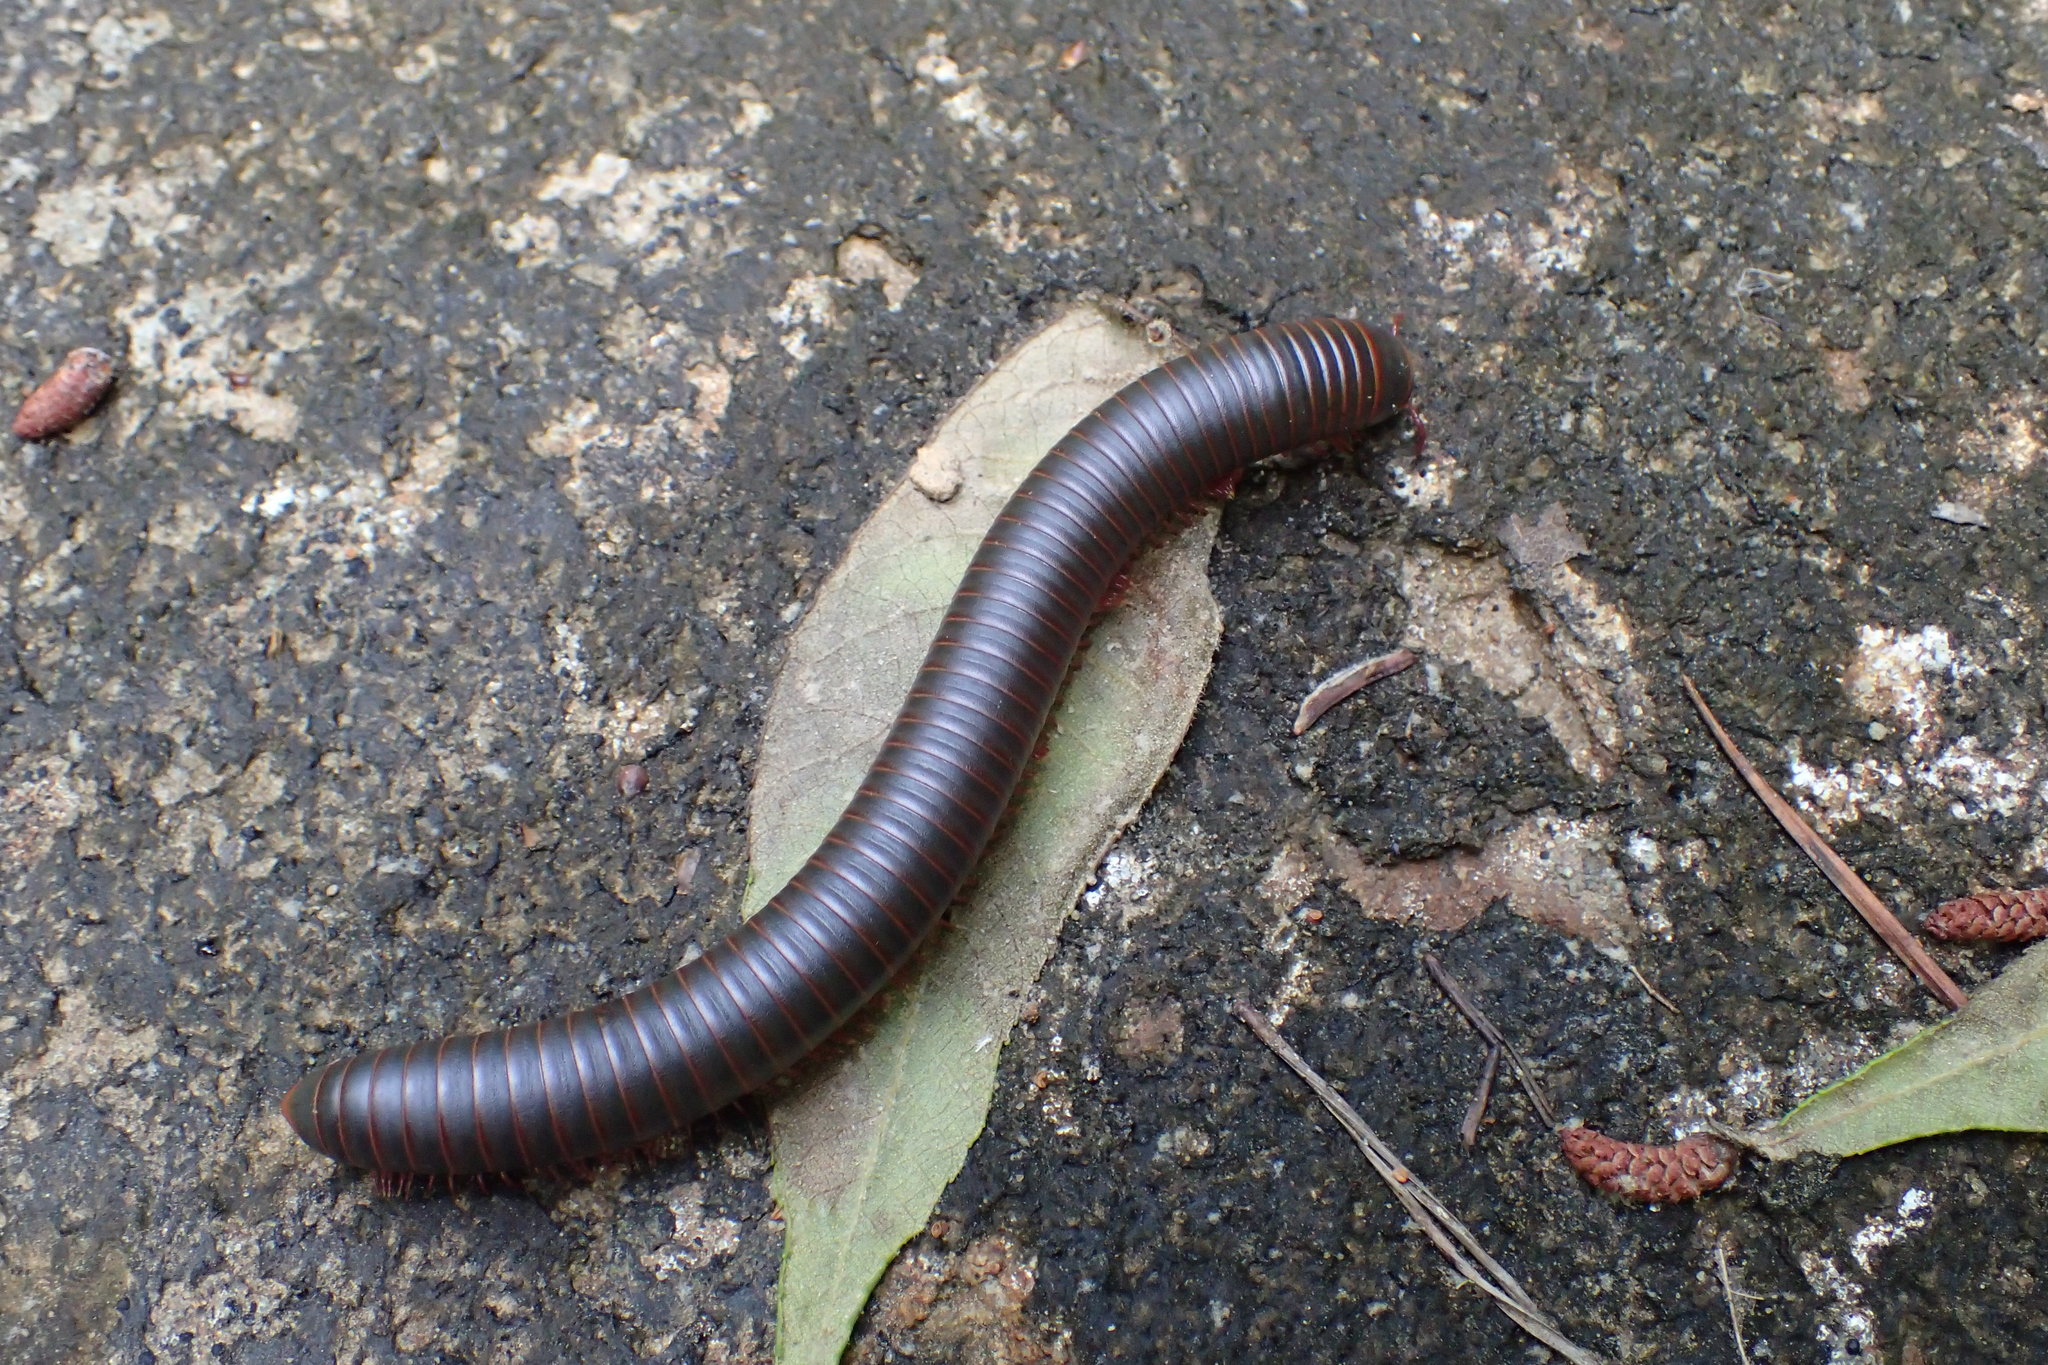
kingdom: Animalia
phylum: Arthropoda
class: Diplopoda
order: Spirobolida
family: Spirobolidae
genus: Narceus
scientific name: Narceus
